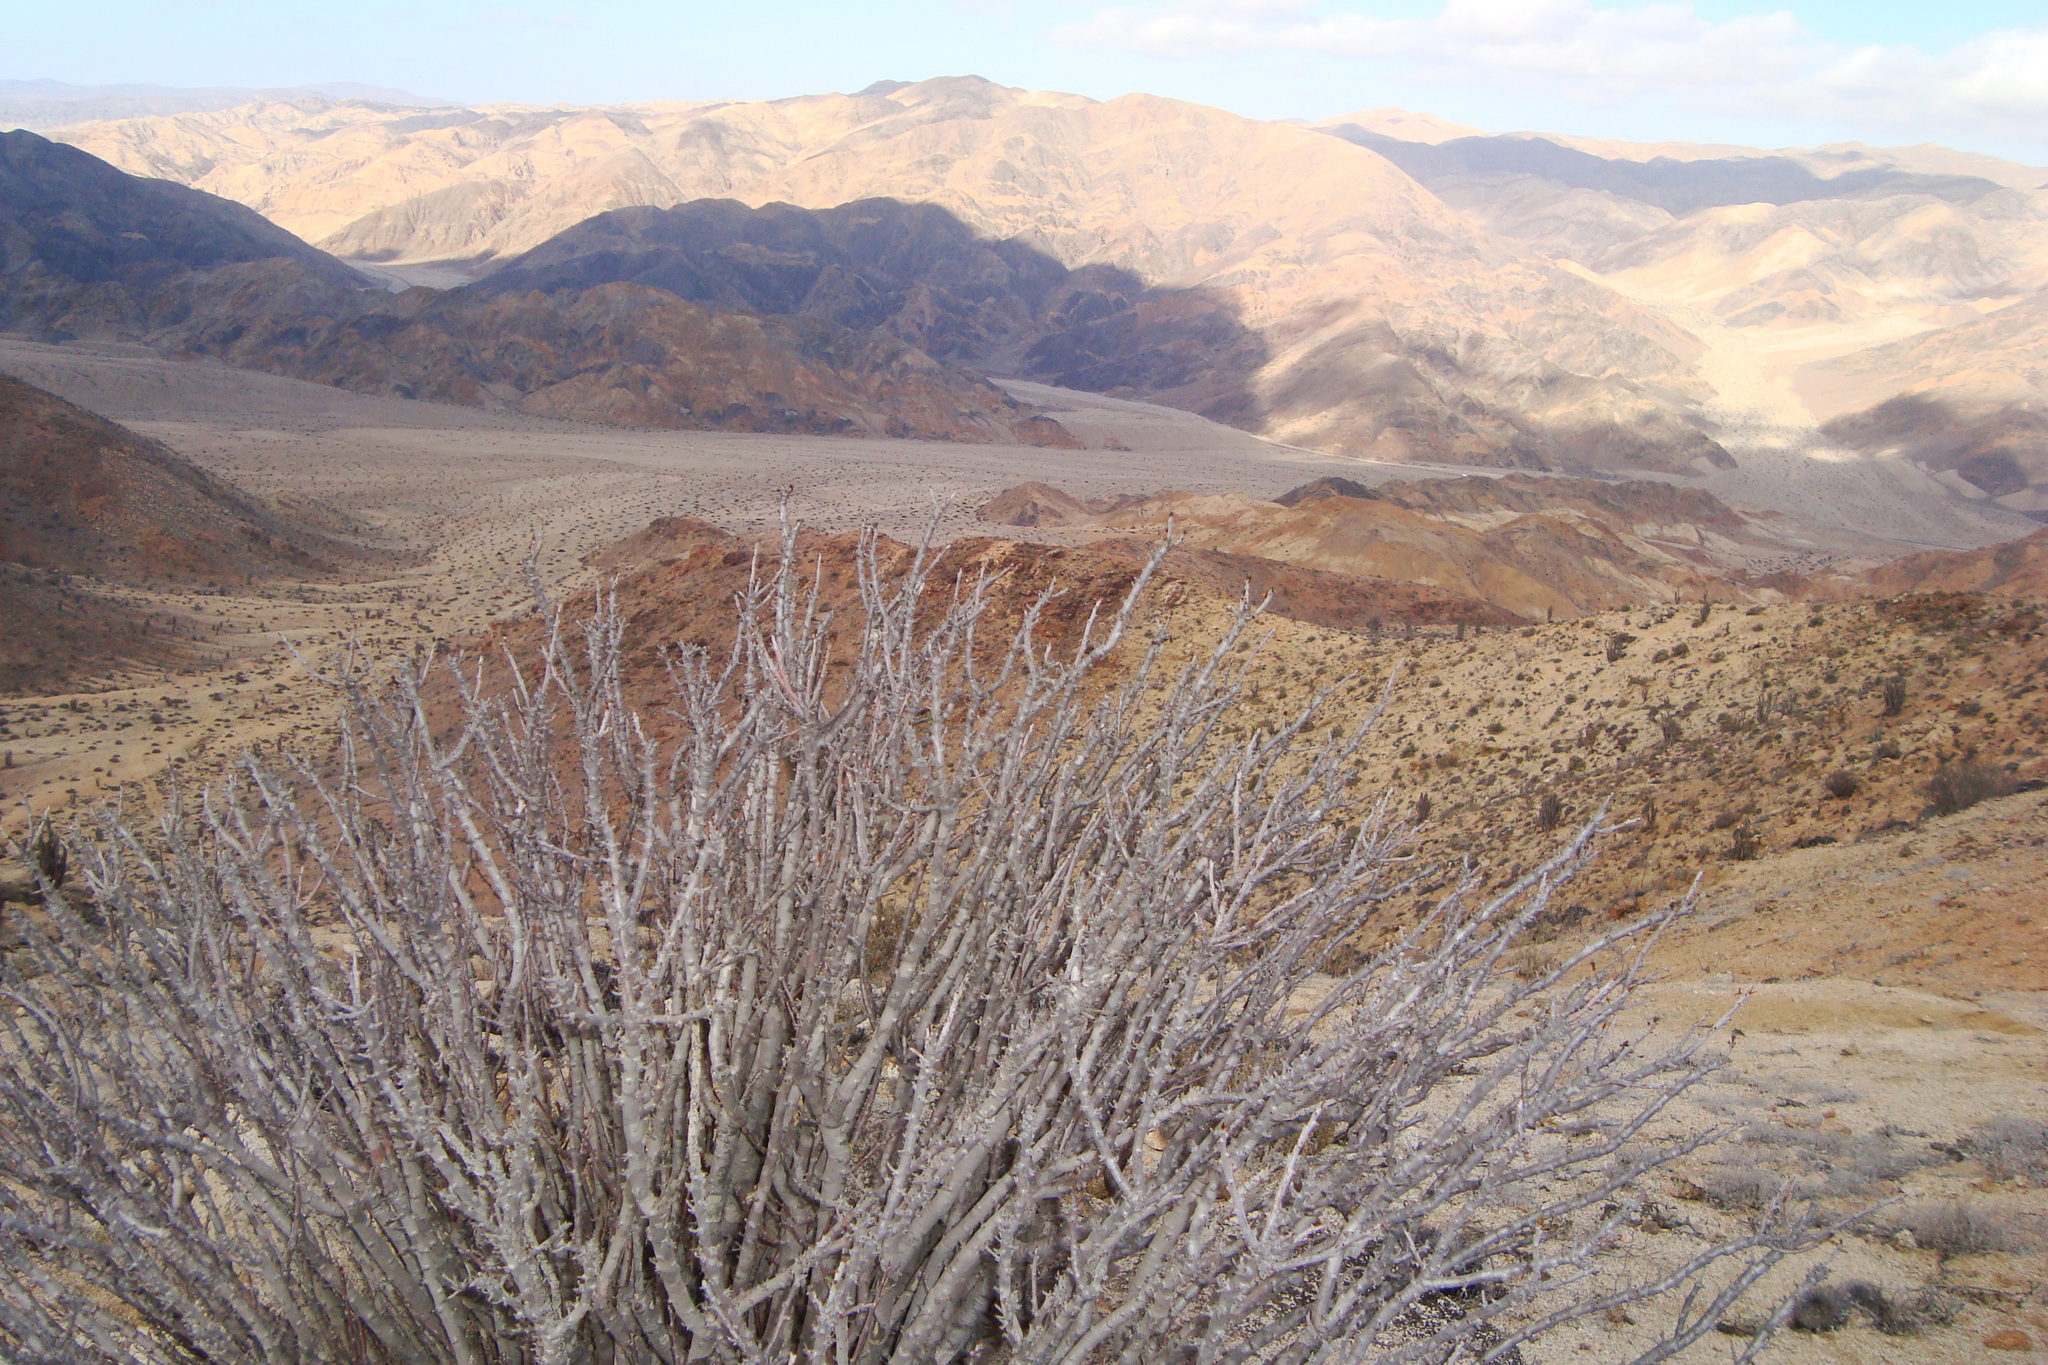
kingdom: Plantae
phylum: Tracheophyta
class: Magnoliopsida
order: Malpighiales
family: Euphorbiaceae
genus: Euphorbia
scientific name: Euphorbia lactiflua
